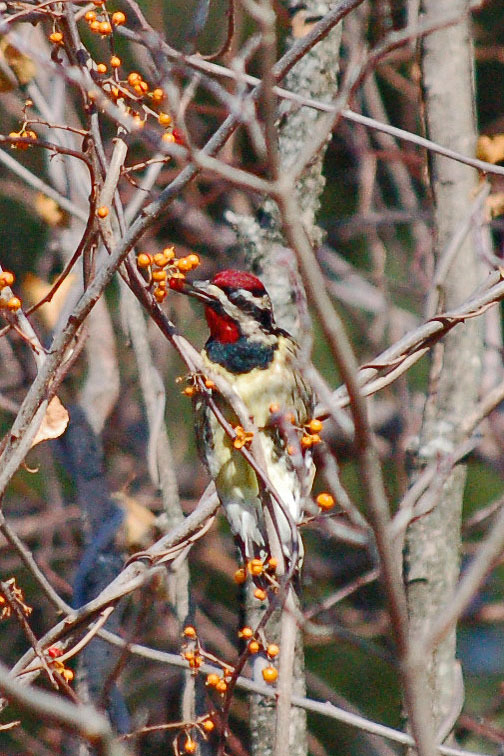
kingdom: Animalia
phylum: Chordata
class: Aves
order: Piciformes
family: Picidae
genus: Sphyrapicus
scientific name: Sphyrapicus varius
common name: Yellow-bellied sapsucker
